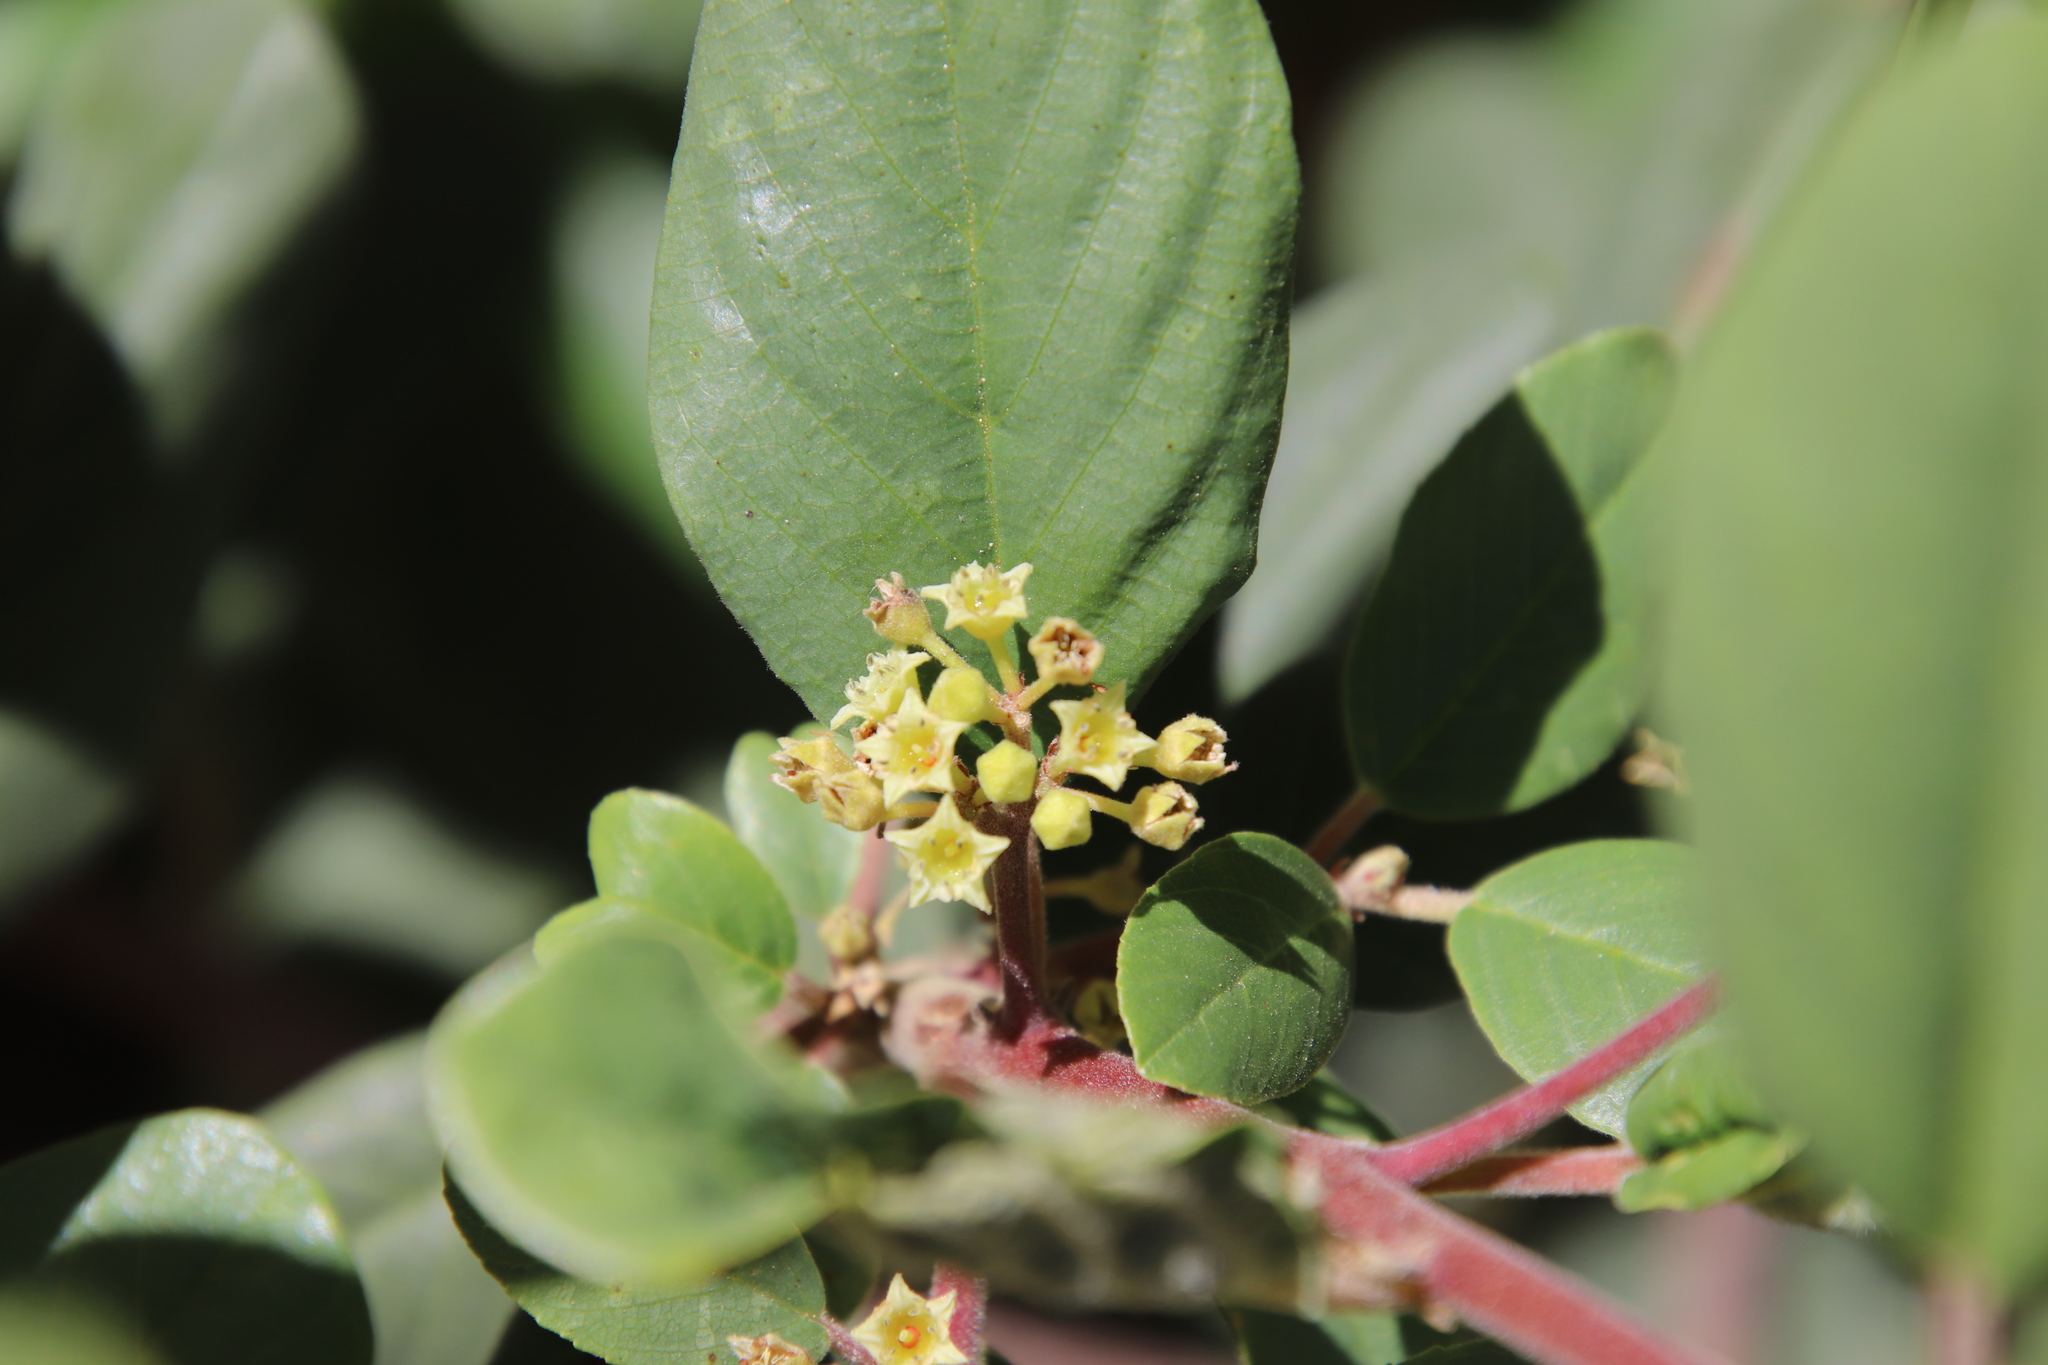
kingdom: Plantae
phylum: Tracheophyta
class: Magnoliopsida
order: Rosales
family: Rhamnaceae
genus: Frangula
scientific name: Frangula californica
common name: California buckthorn
